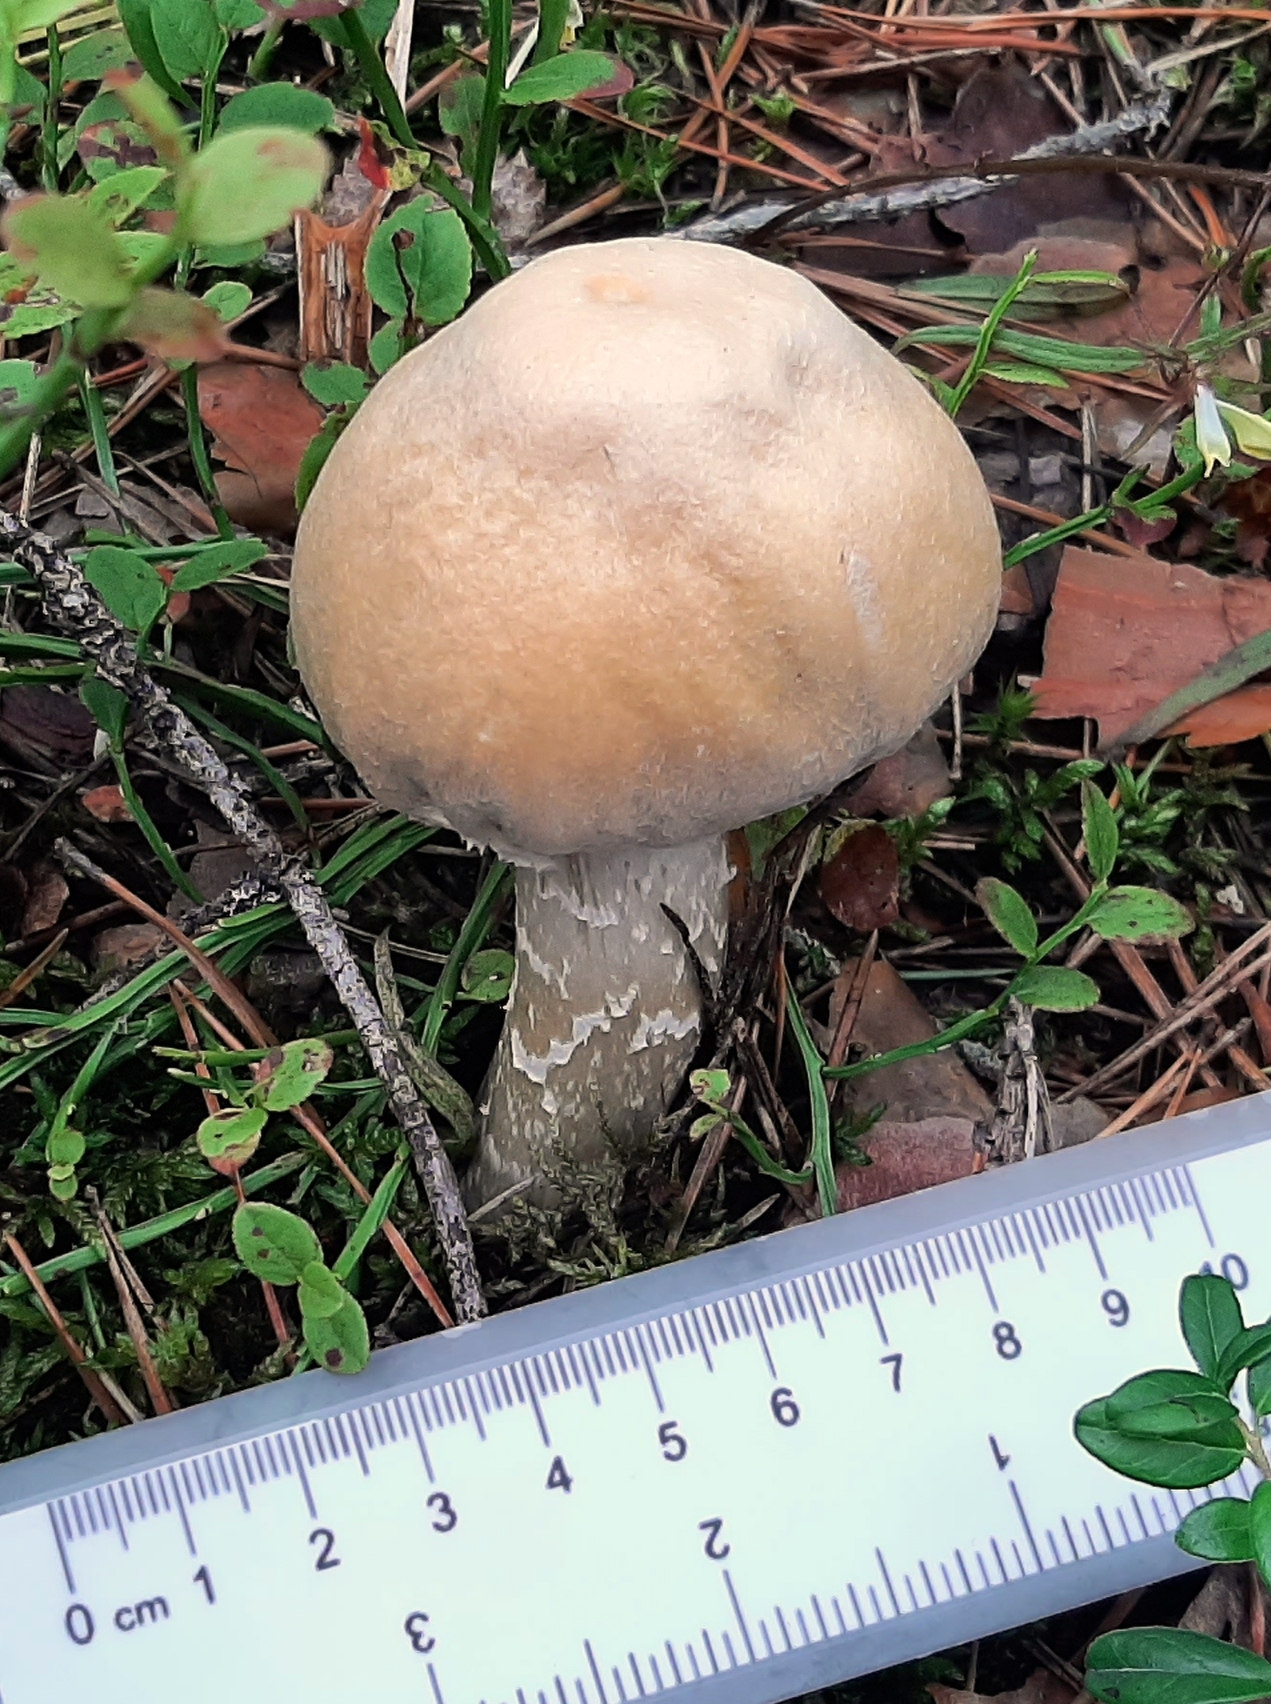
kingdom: Fungi
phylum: Basidiomycota
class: Agaricomycetes
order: Agaricales
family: Cortinariaceae
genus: Cortinarius
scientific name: Cortinarius caperatus
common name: The gypsy
